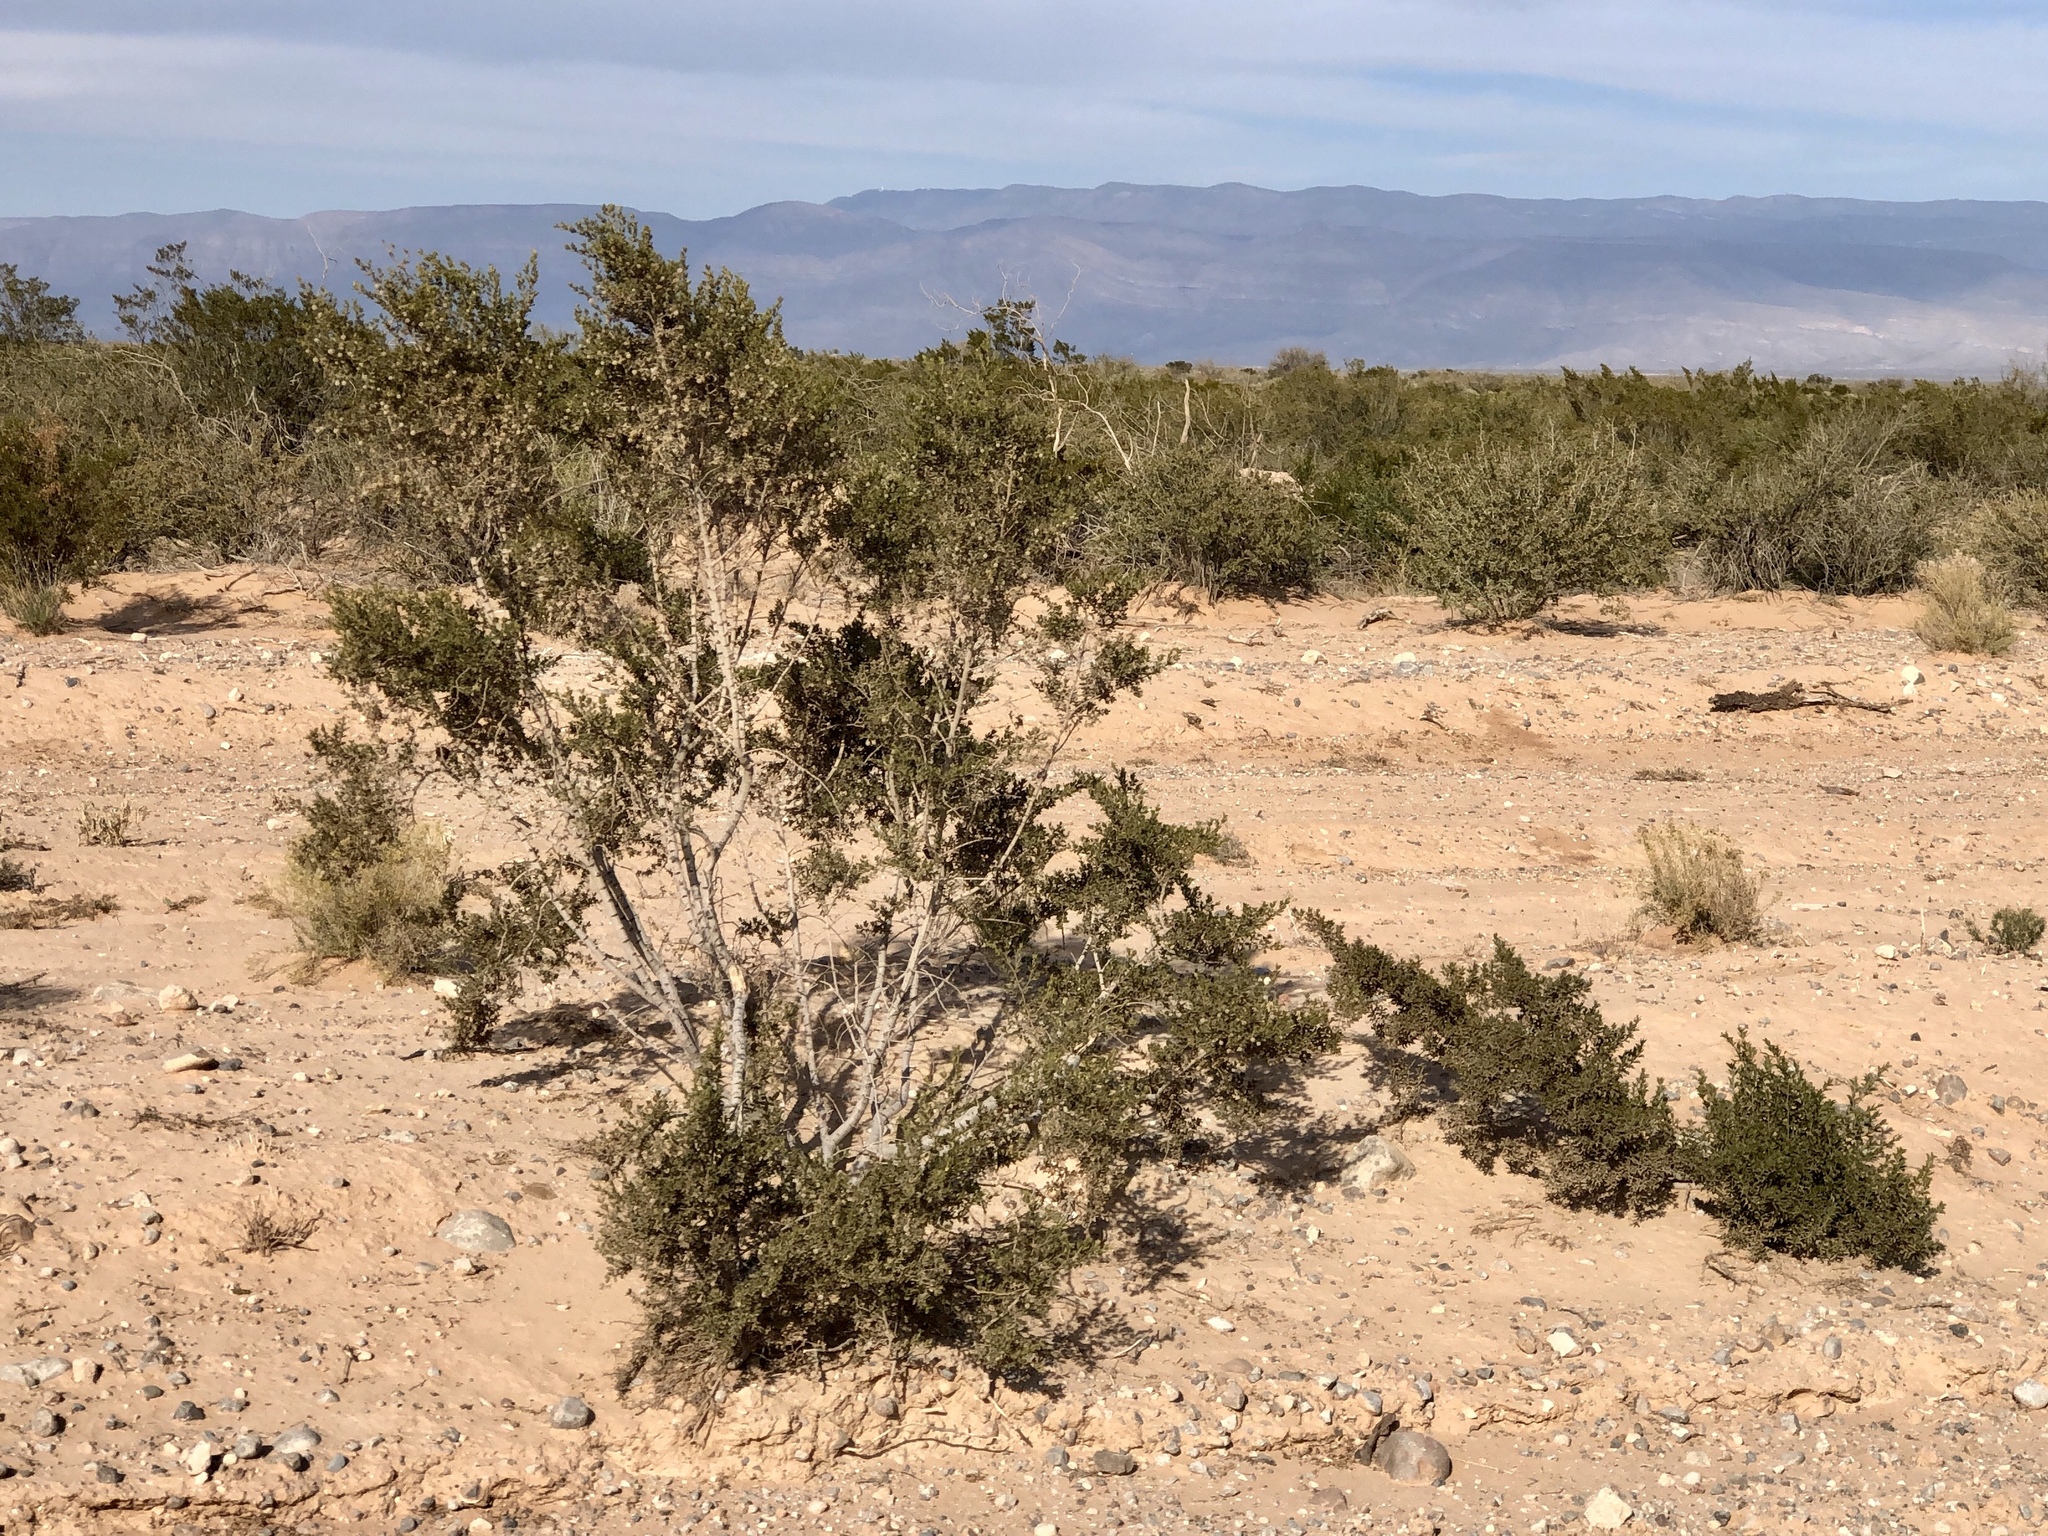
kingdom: Plantae
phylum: Tracheophyta
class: Magnoliopsida
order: Zygophyllales
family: Zygophyllaceae
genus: Larrea
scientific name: Larrea tridentata
